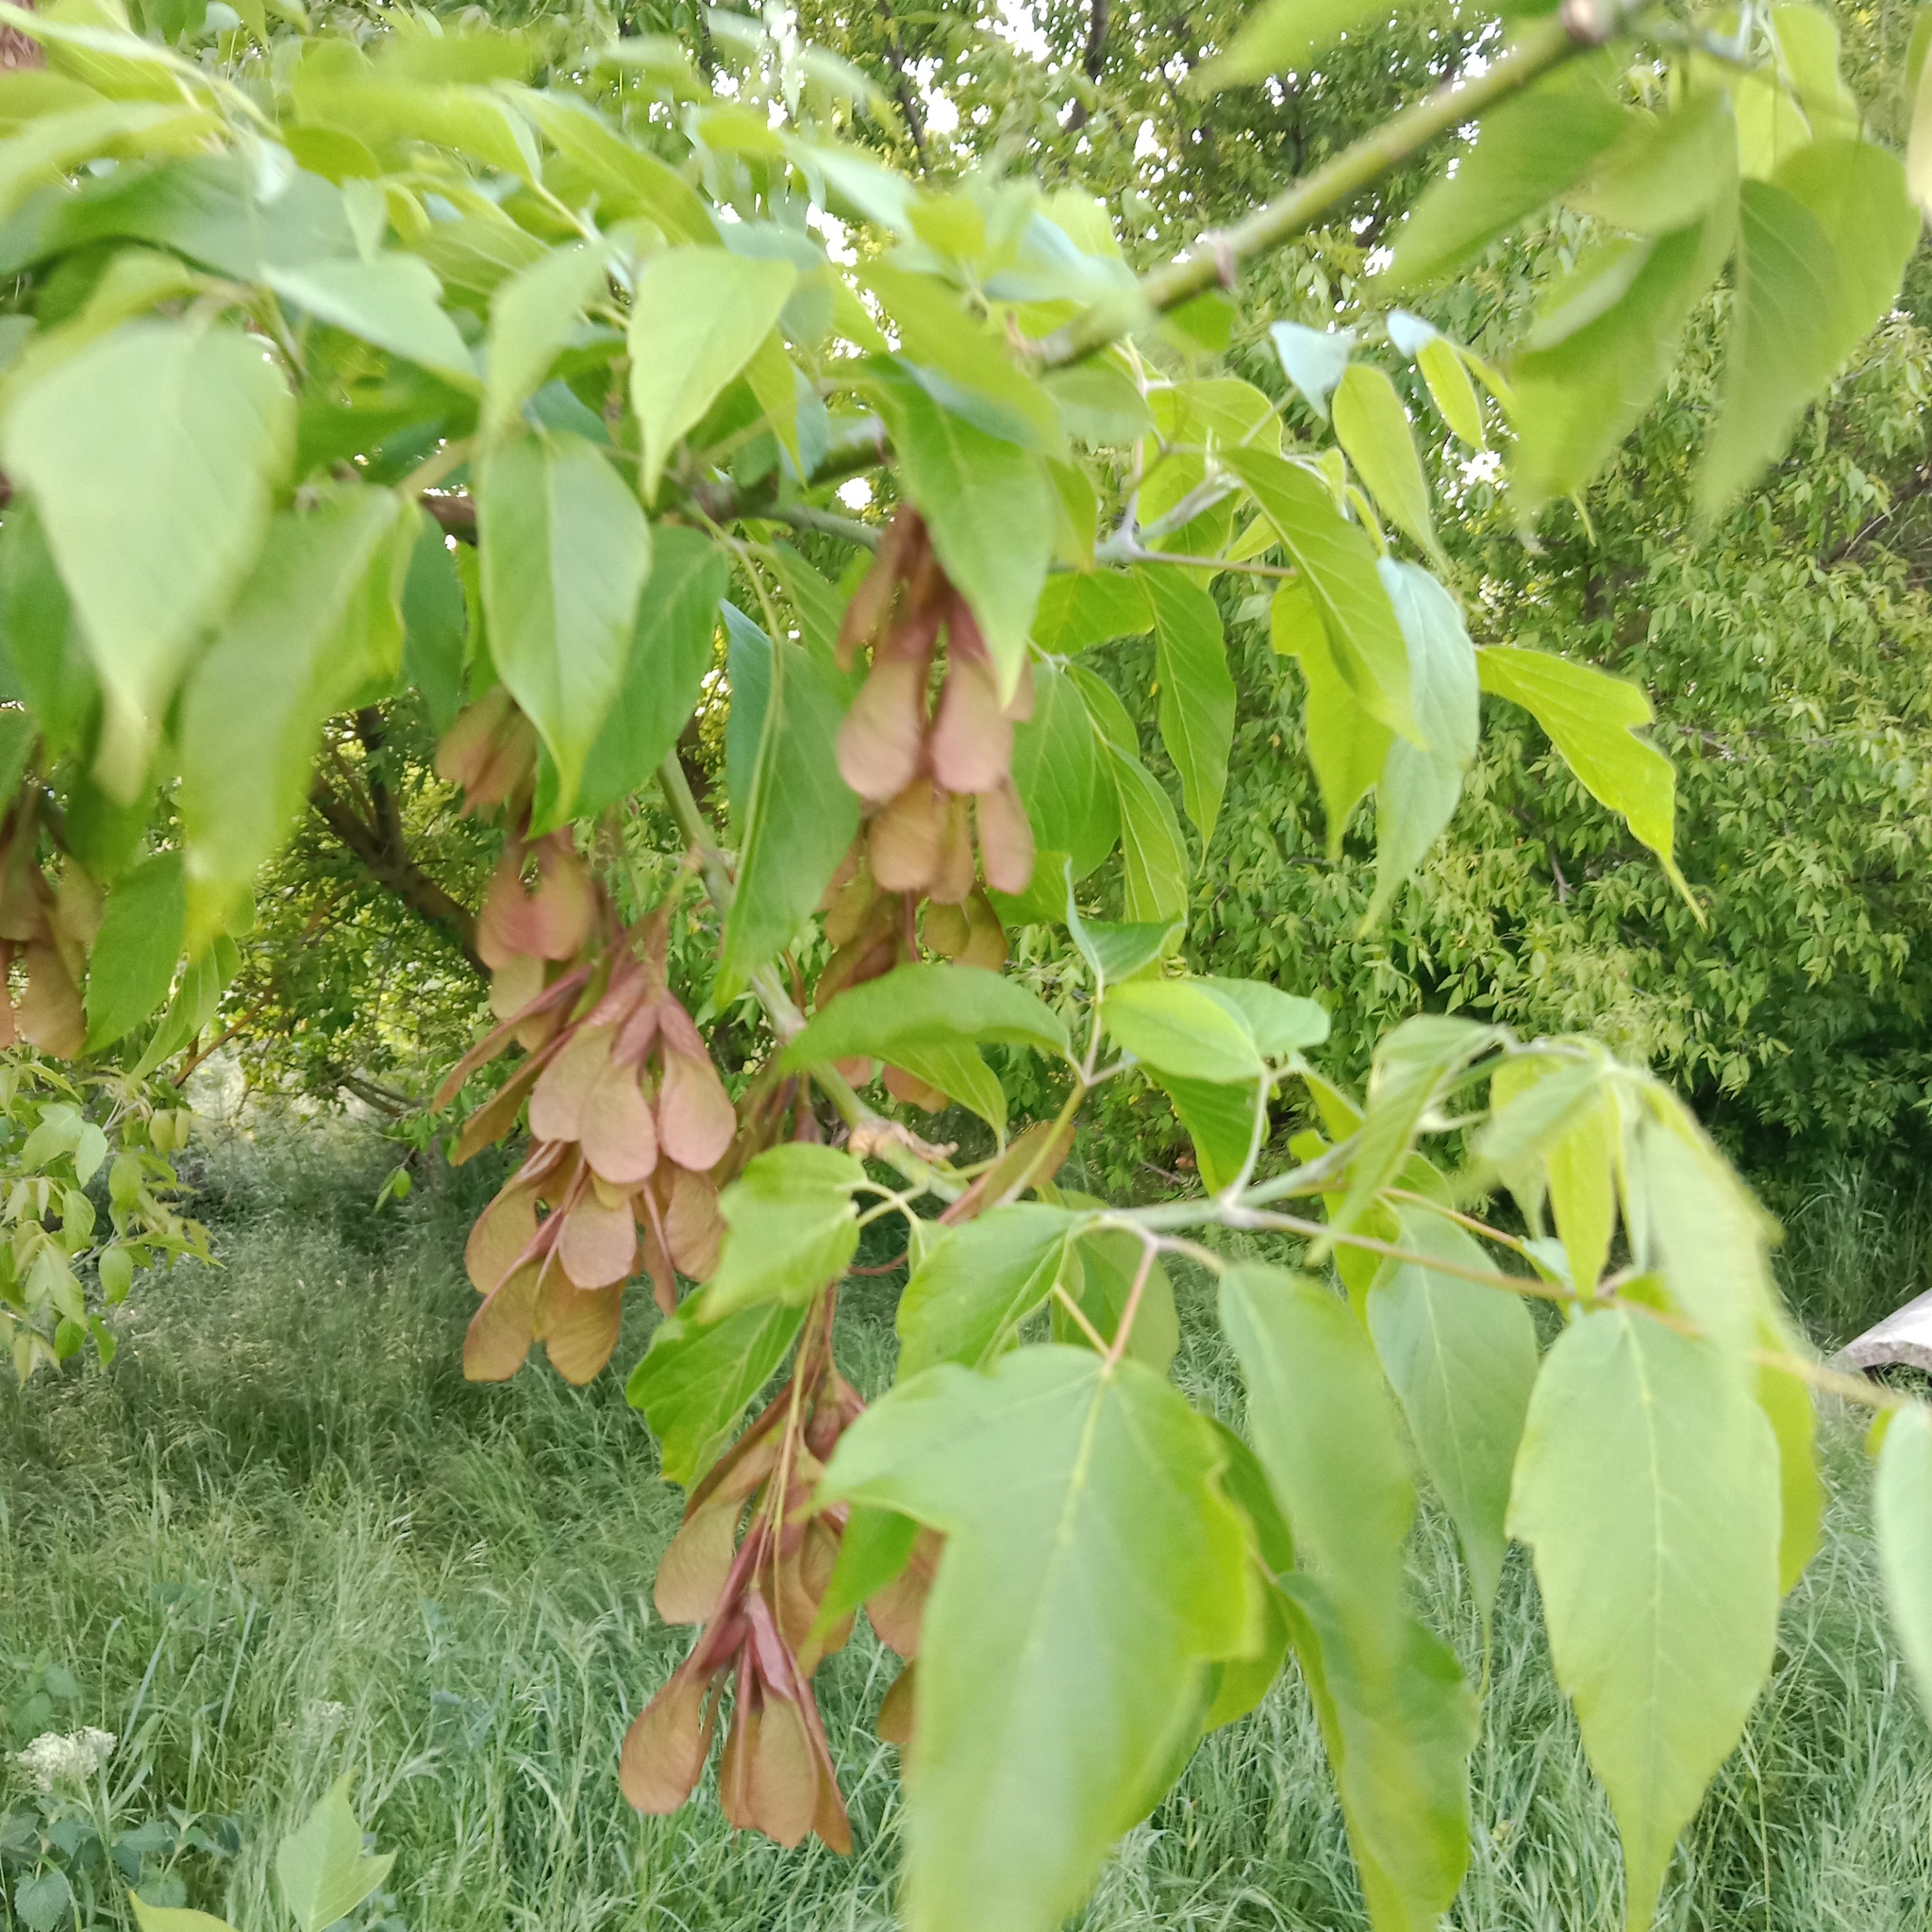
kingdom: Plantae
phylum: Tracheophyta
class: Magnoliopsida
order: Sapindales
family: Sapindaceae
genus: Acer
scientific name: Acer negundo
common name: Ashleaf maple
